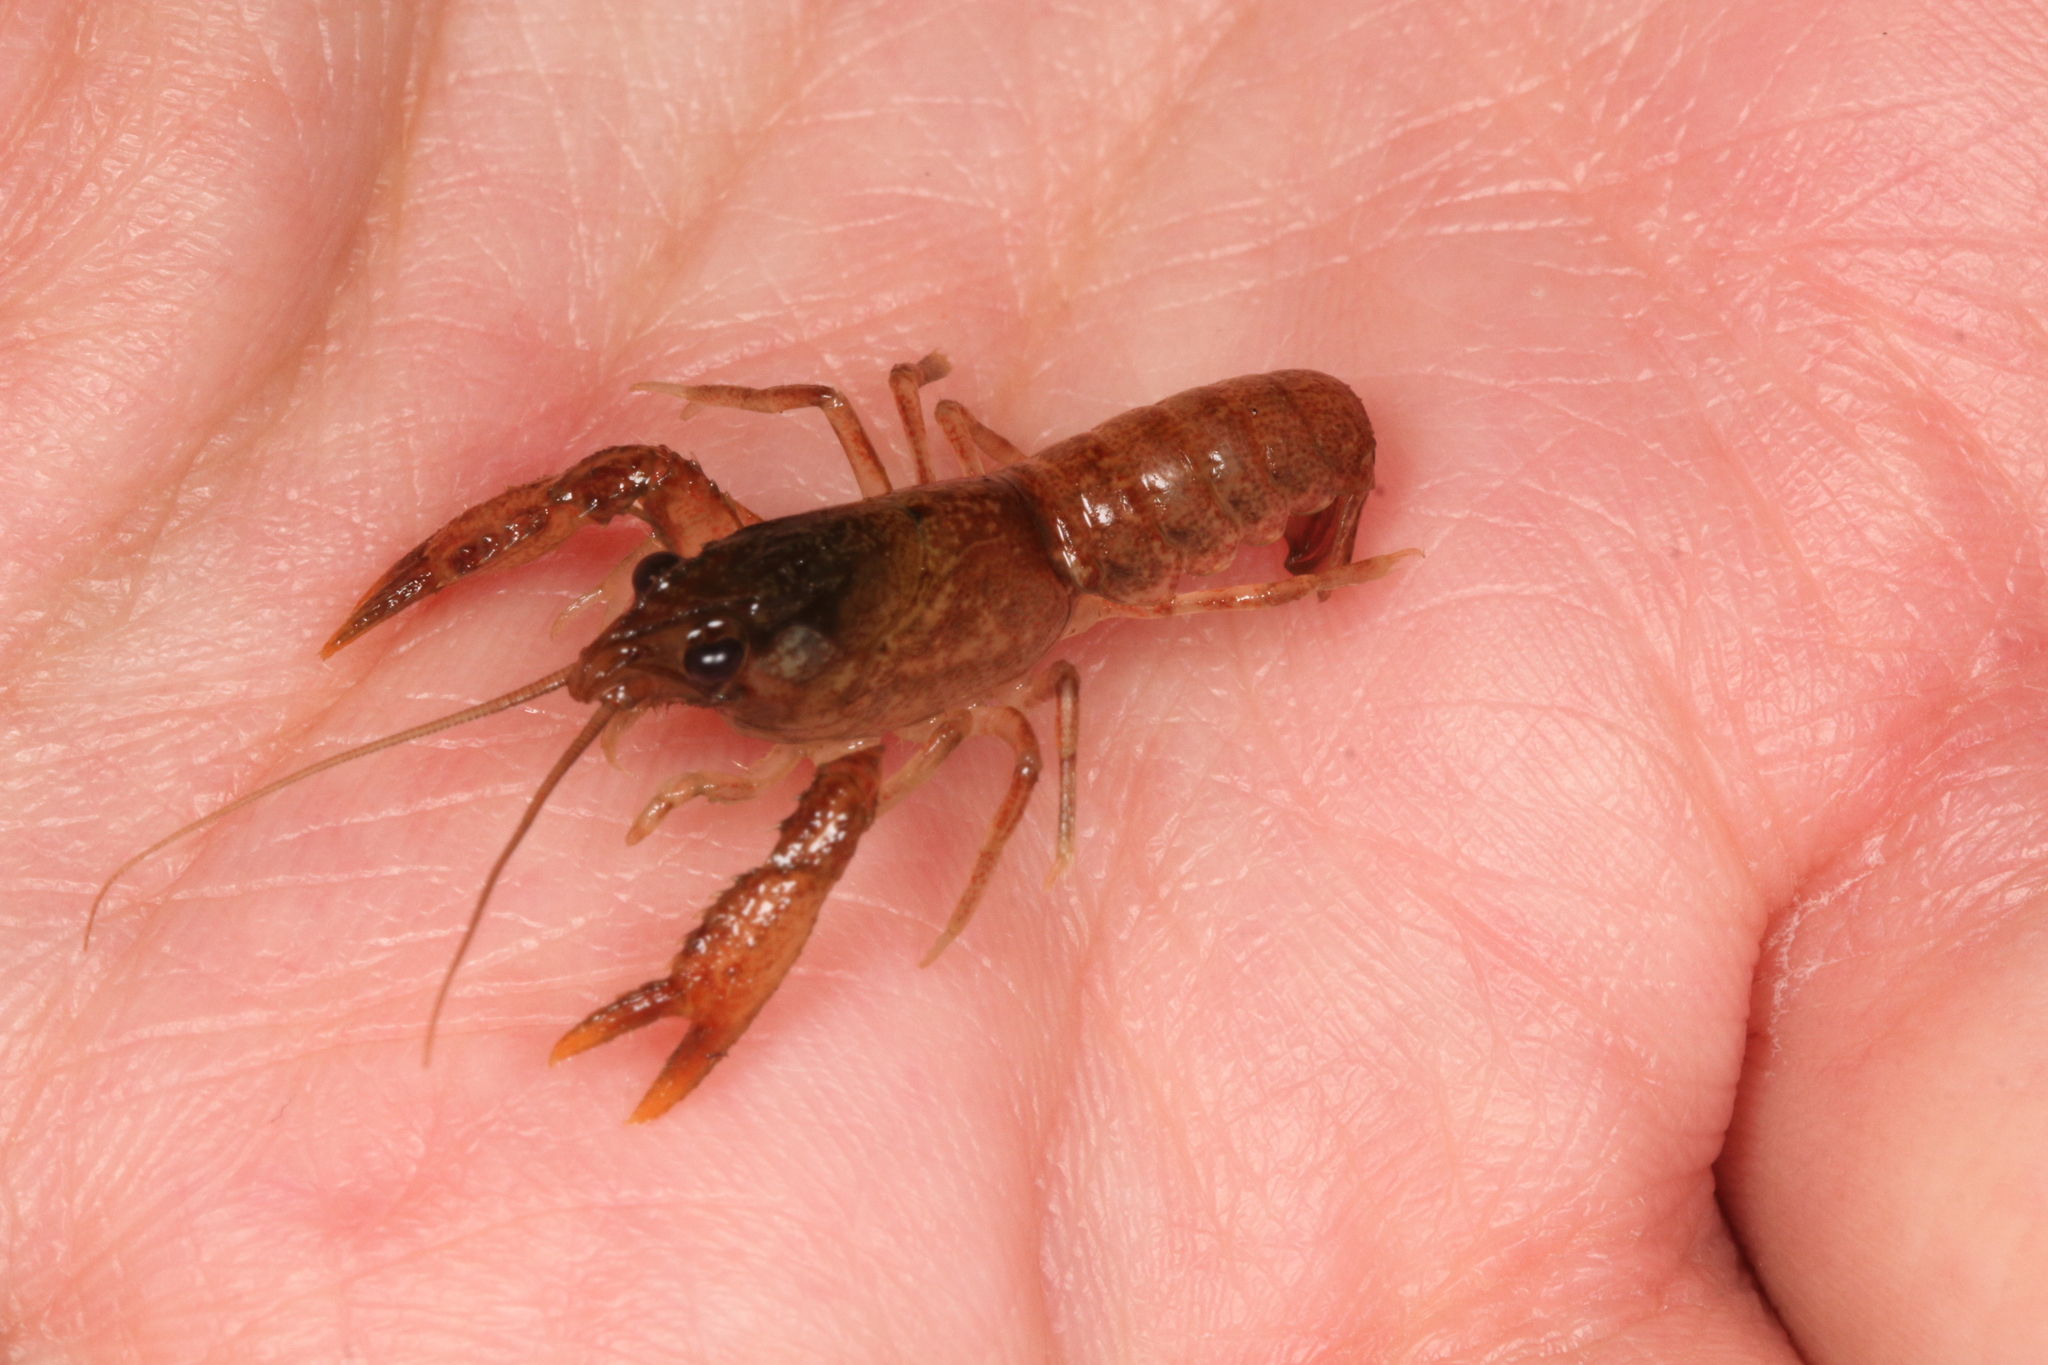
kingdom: Animalia
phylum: Arthropoda
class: Malacostraca
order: Decapoda
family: Parastacidae
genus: Paranephrops
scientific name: Paranephrops planifrons
